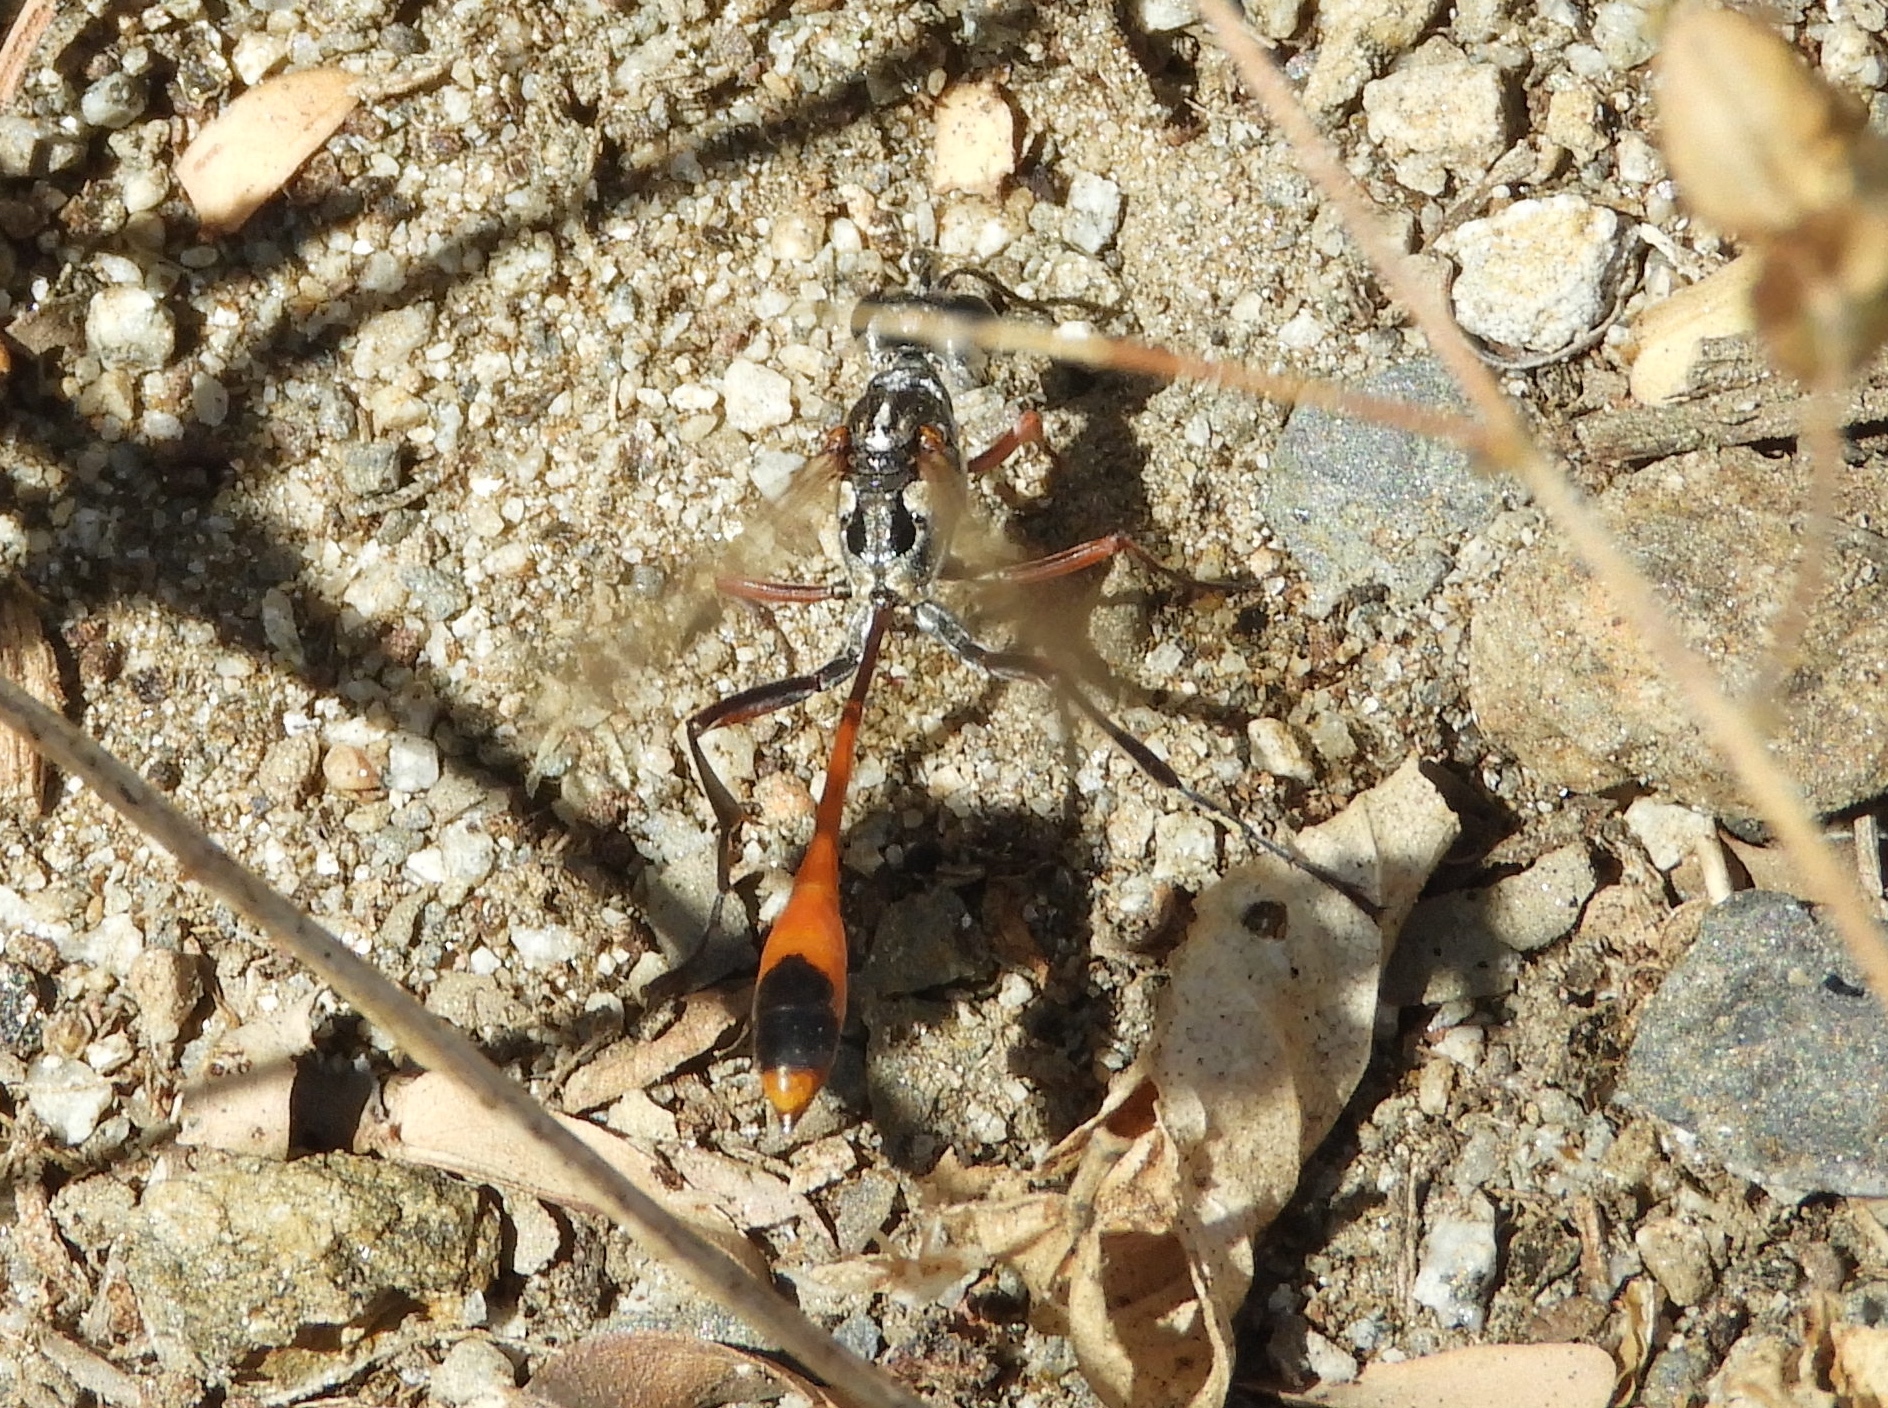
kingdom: Animalia
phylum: Arthropoda
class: Insecta
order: Hymenoptera
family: Sphecidae
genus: Ammophila
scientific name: Ammophila
